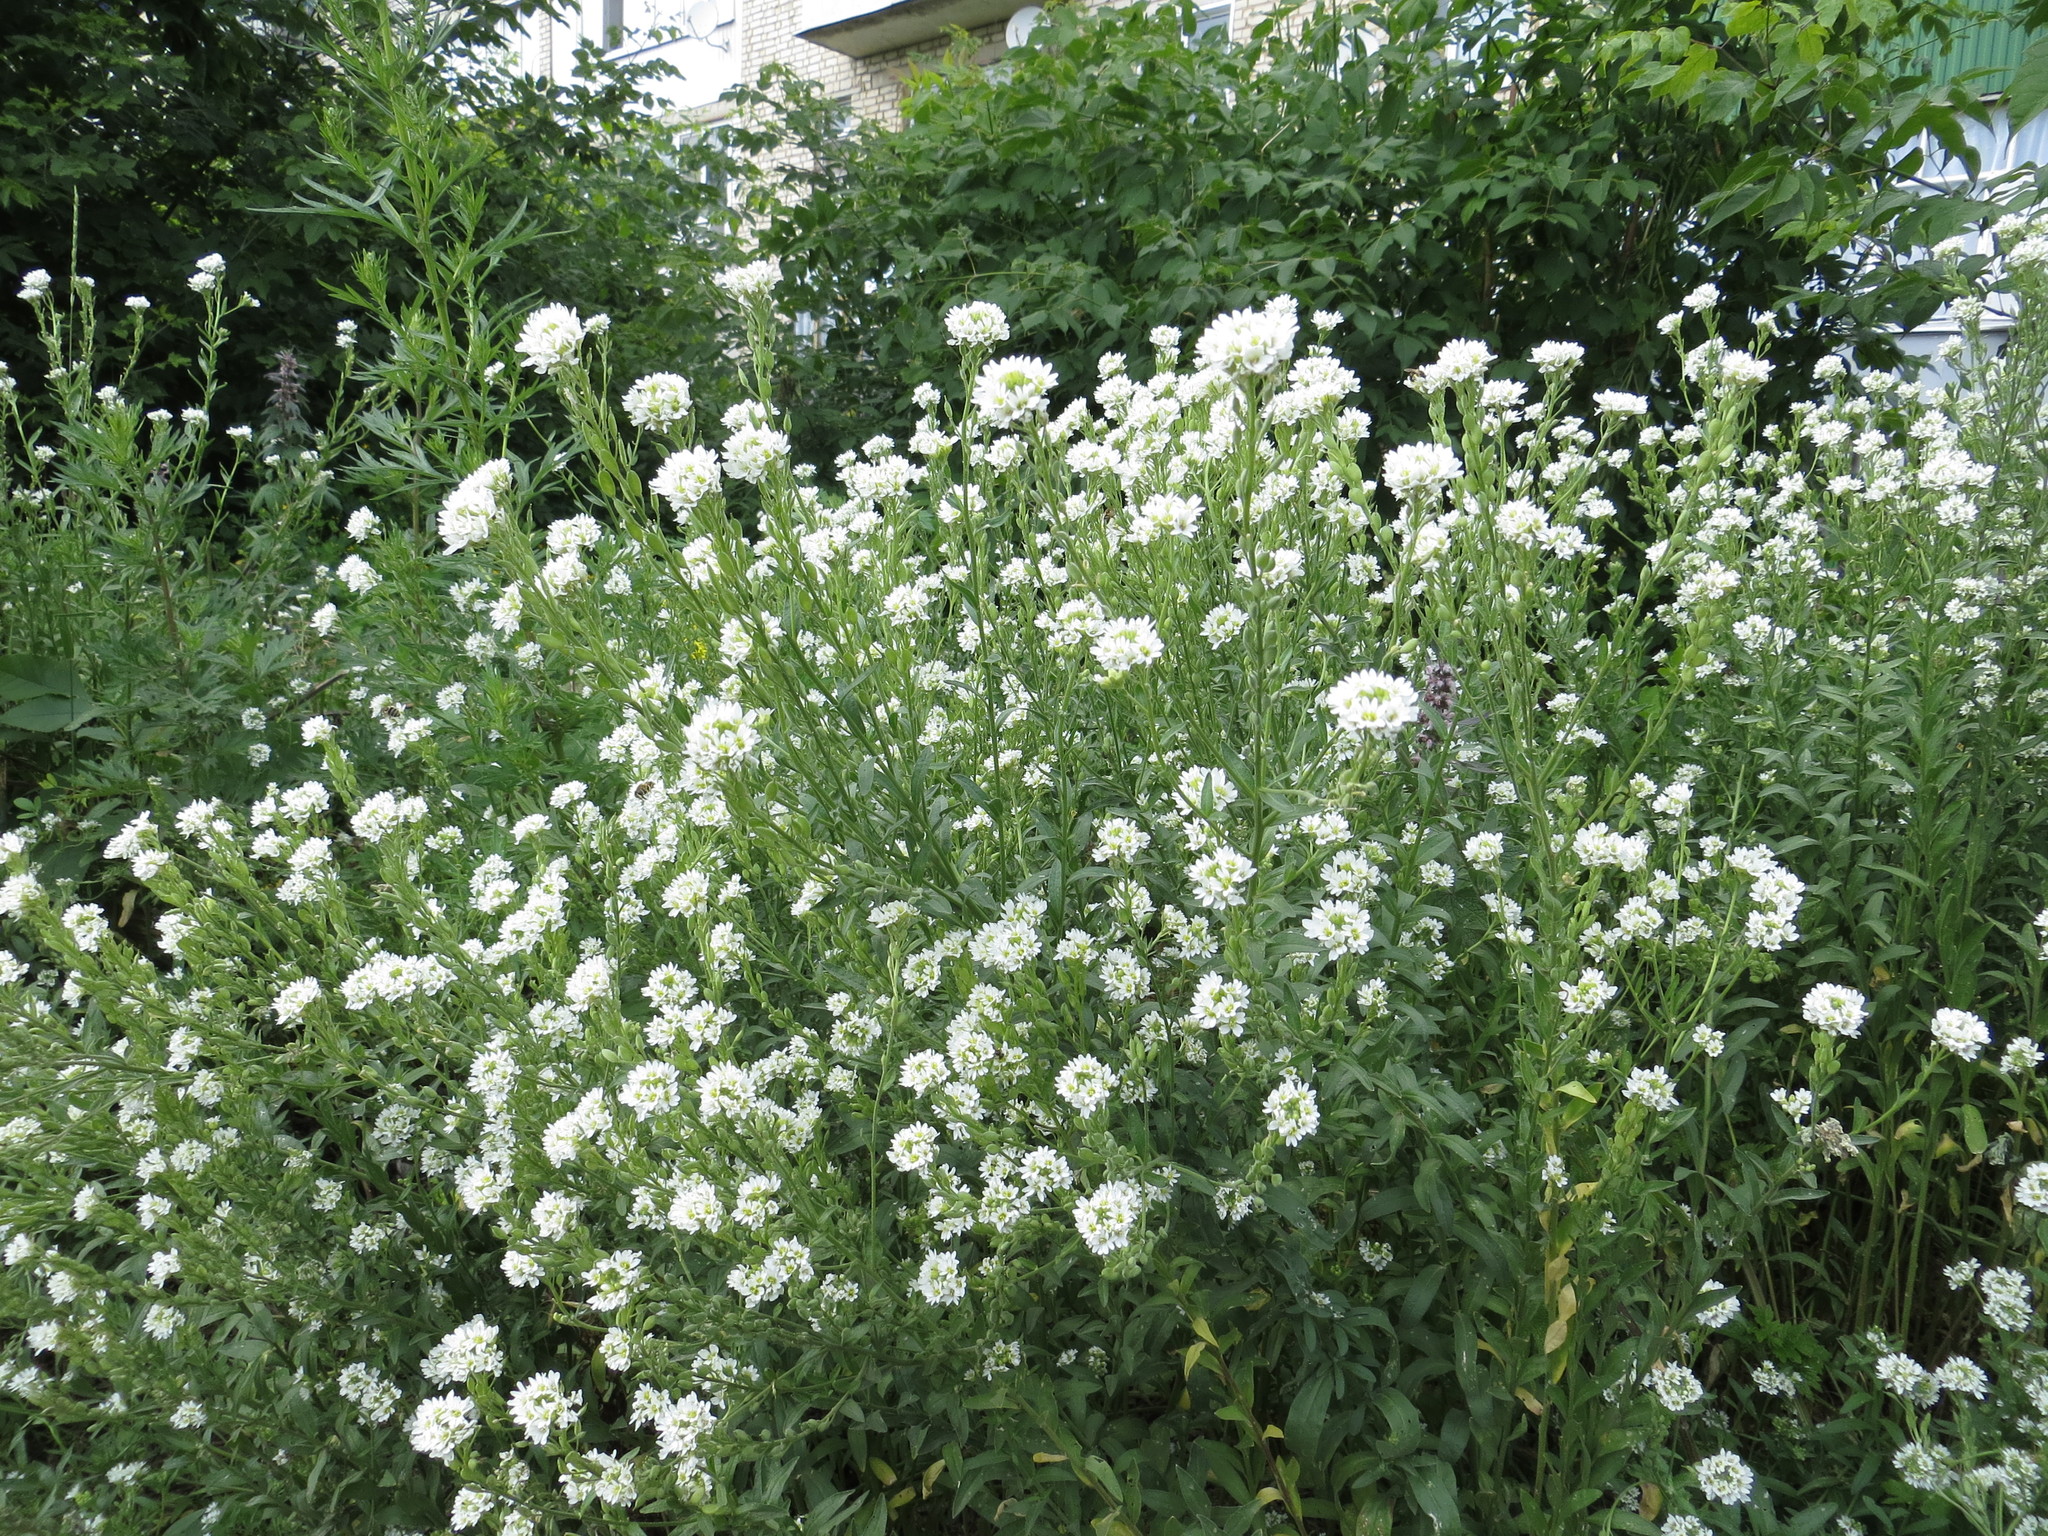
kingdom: Plantae
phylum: Tracheophyta
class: Magnoliopsida
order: Brassicales
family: Brassicaceae
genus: Berteroa
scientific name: Berteroa incana
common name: Hoary alison
